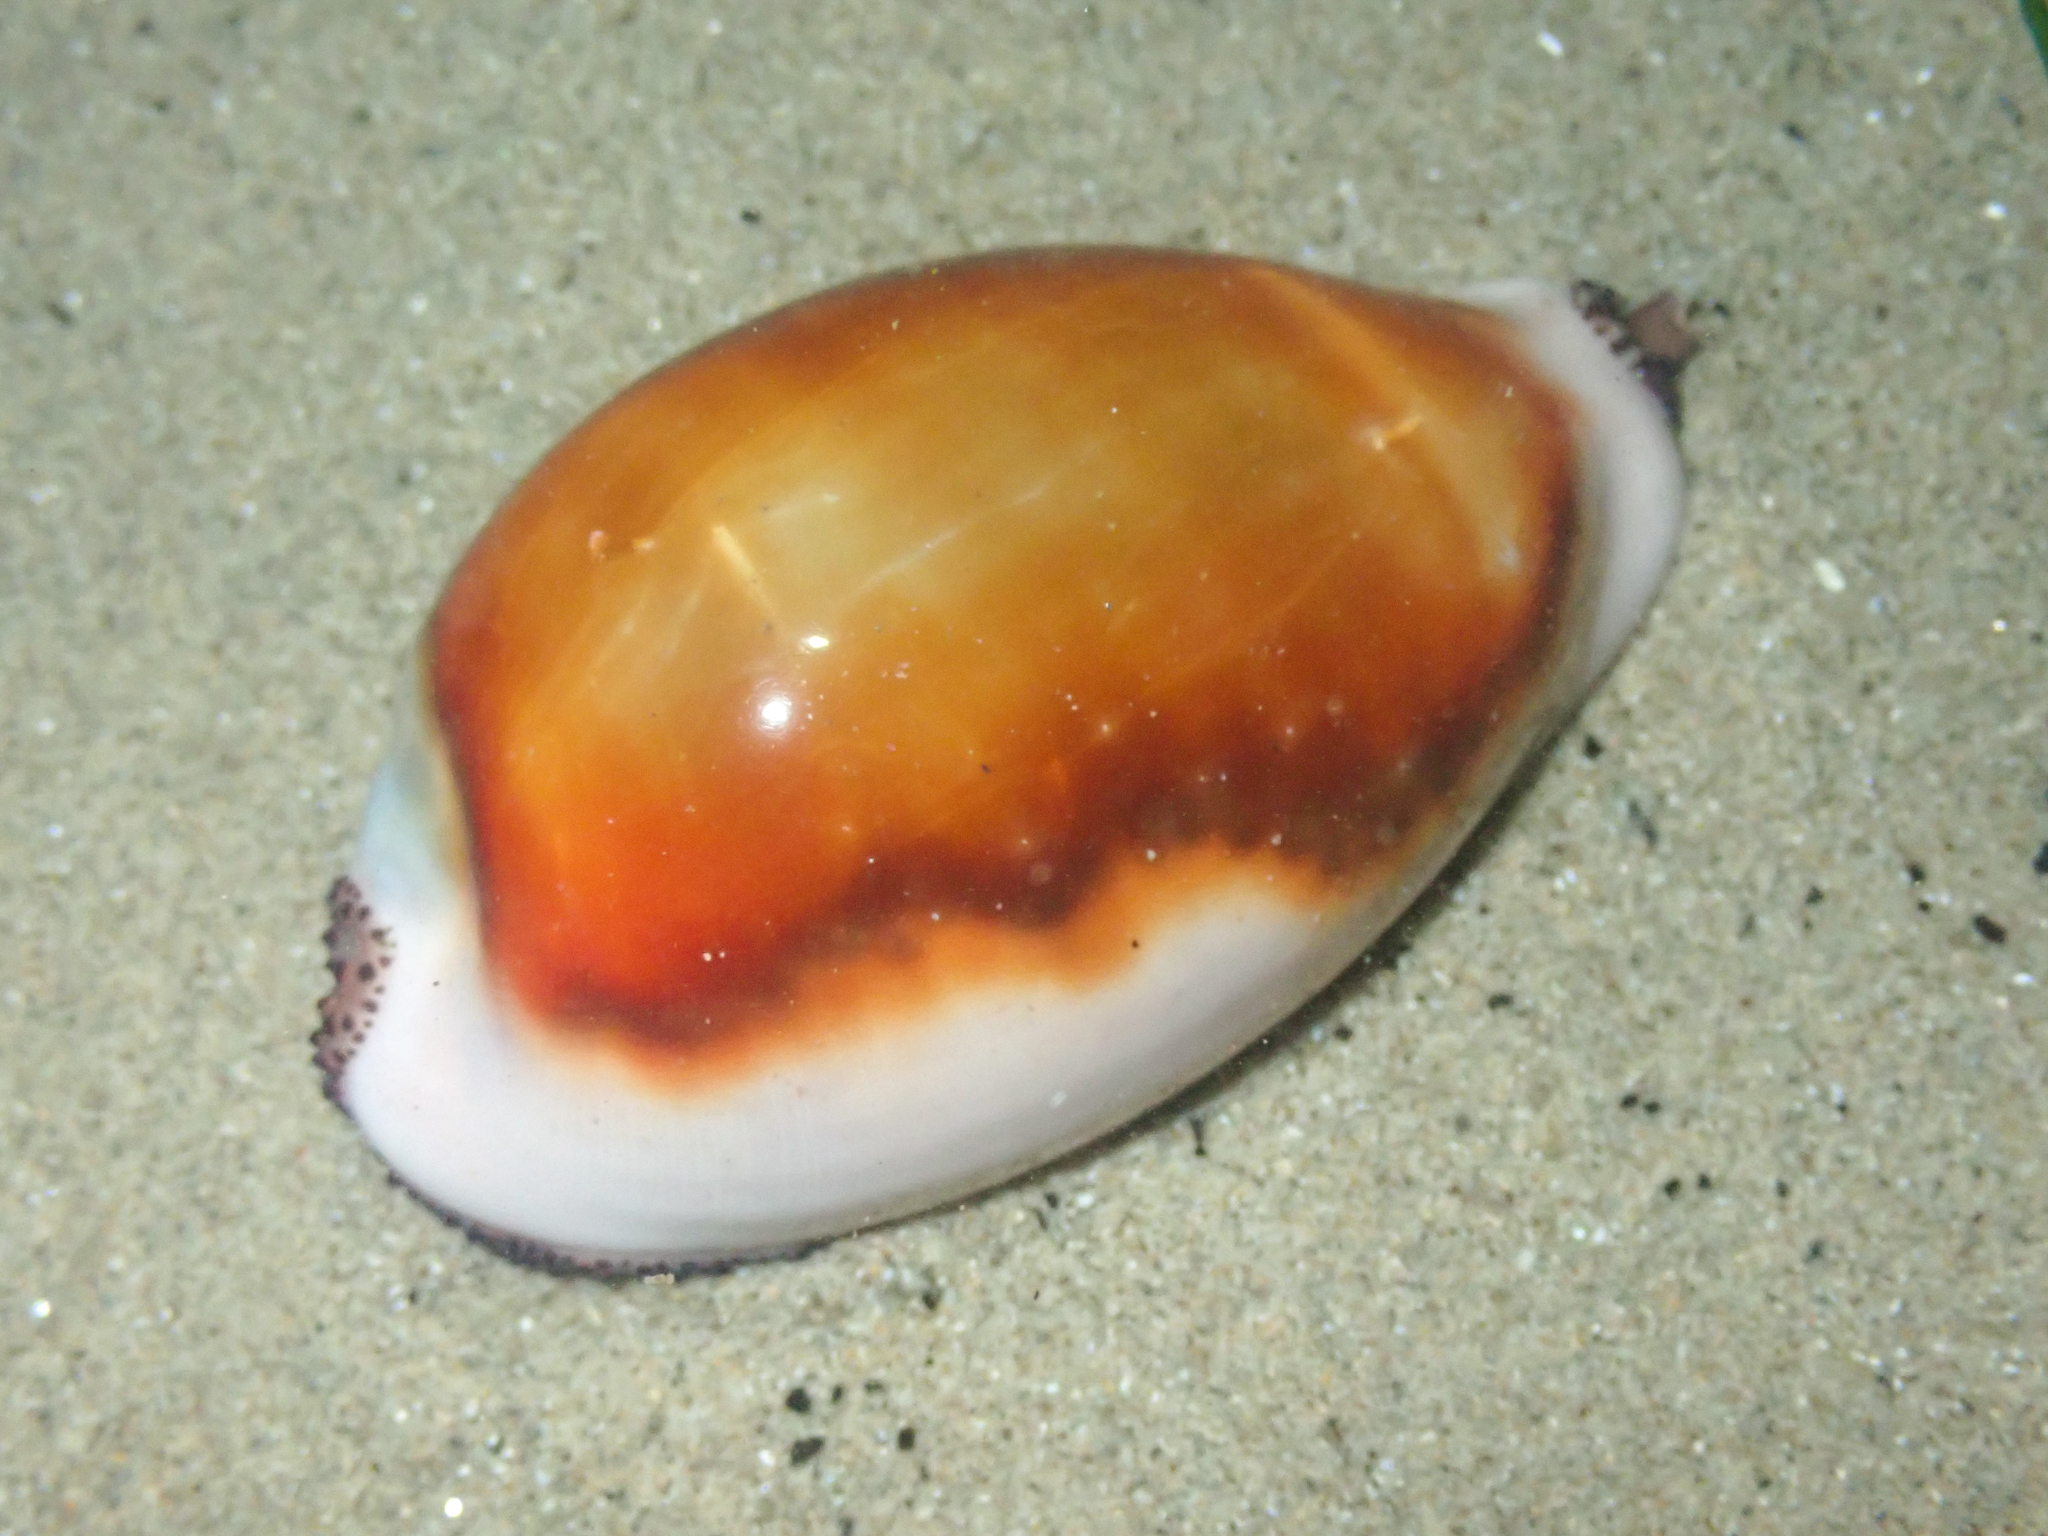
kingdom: Animalia
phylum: Mollusca
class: Gastropoda
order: Littorinimorpha
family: Cypraeidae
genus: Neobernaya
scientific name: Neobernaya spadicea
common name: Chestnut cowrie
